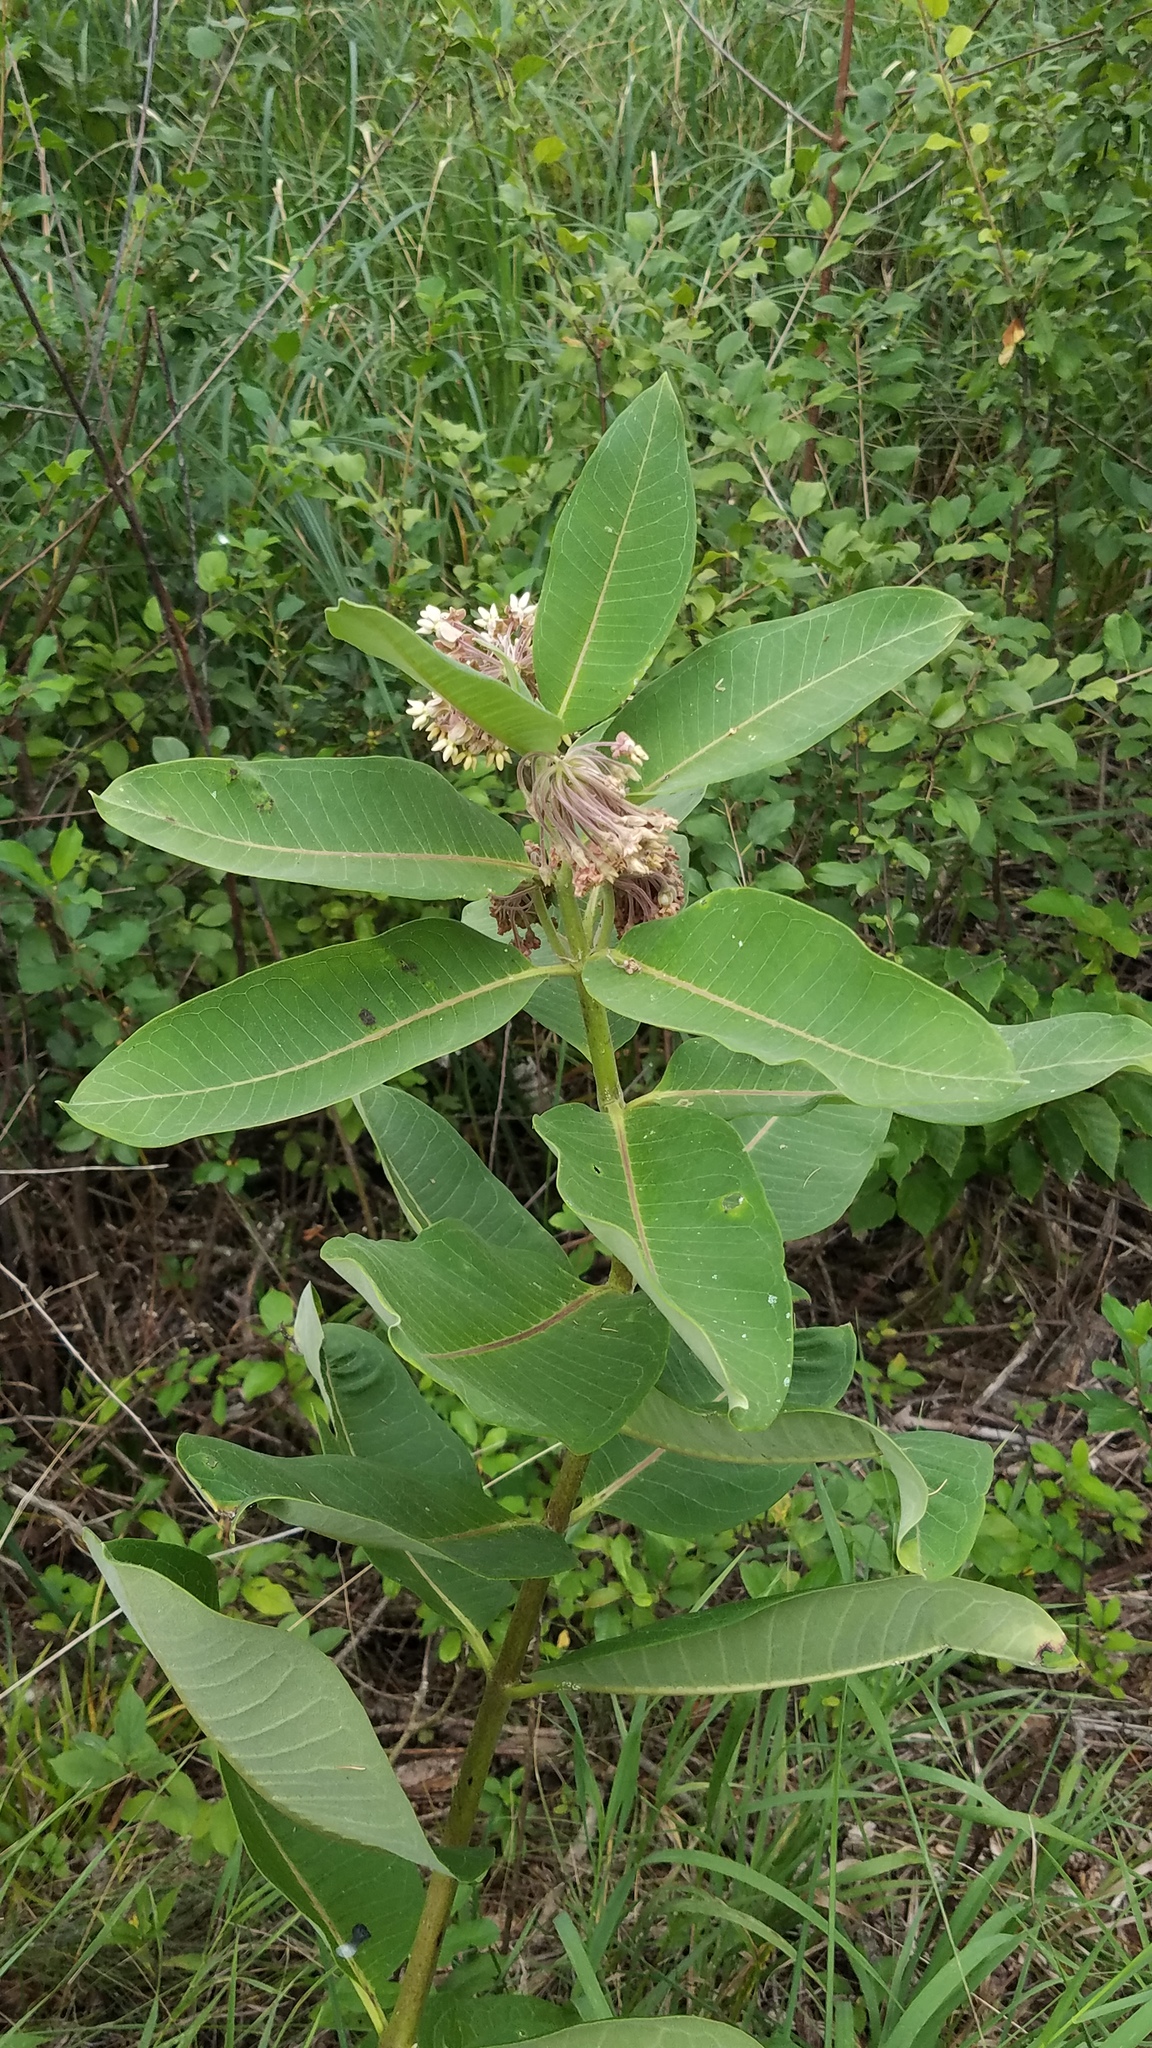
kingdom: Plantae
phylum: Tracheophyta
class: Magnoliopsida
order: Gentianales
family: Apocynaceae
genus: Asclepias
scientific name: Asclepias syriaca
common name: Common milkweed
